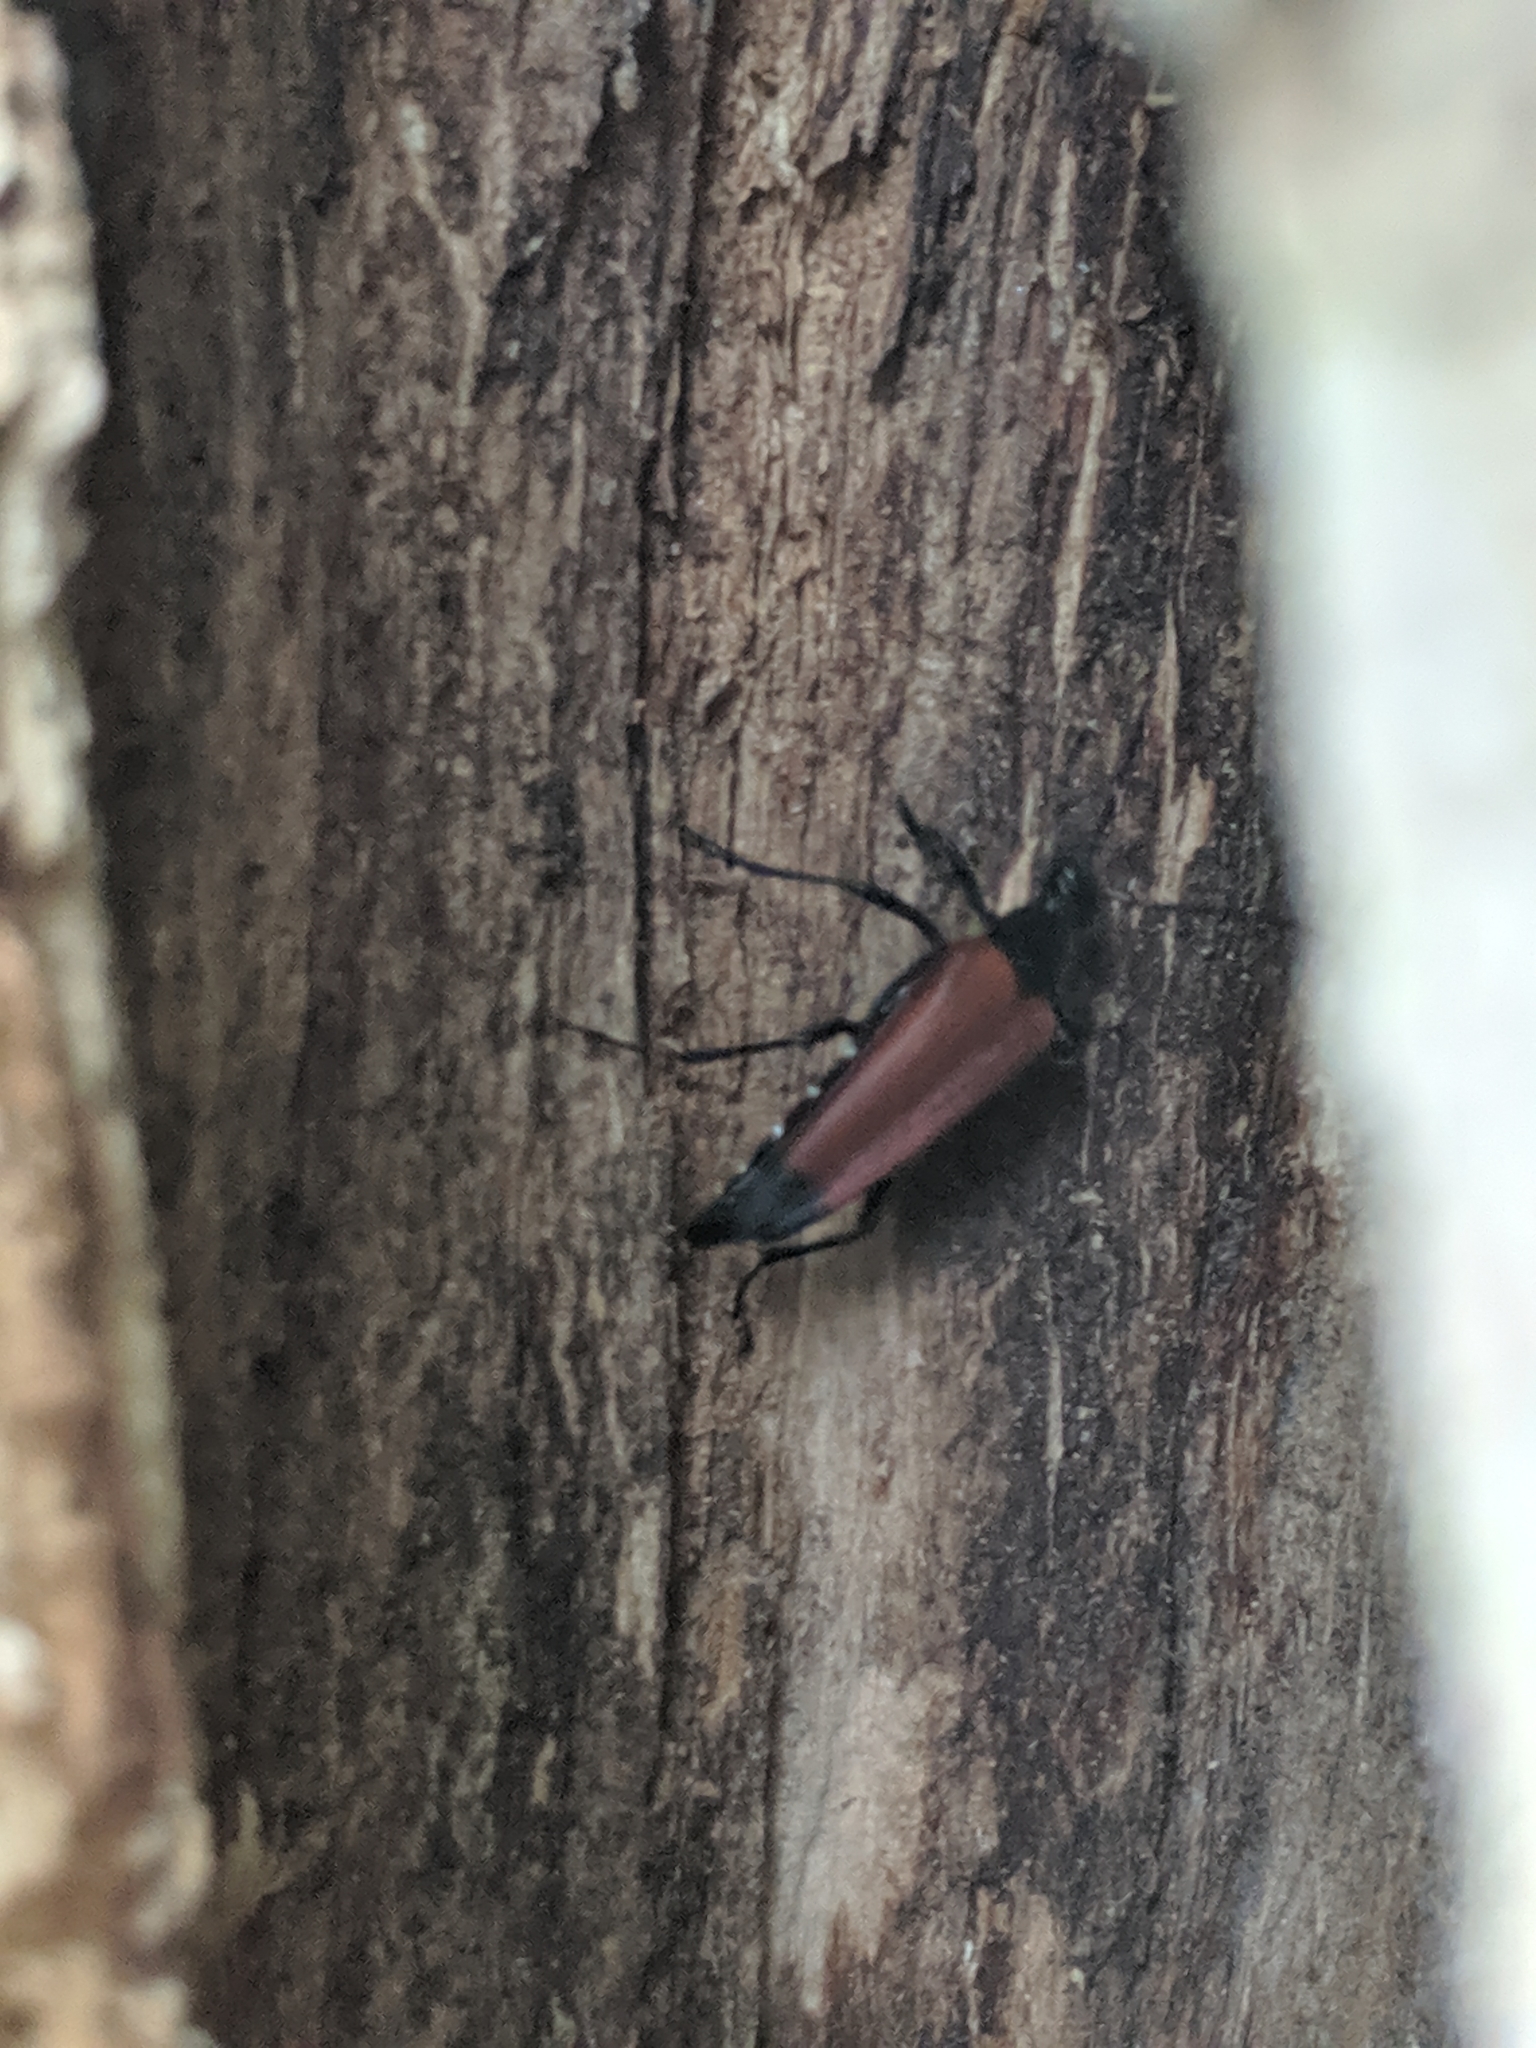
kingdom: Animalia
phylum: Arthropoda
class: Insecta
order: Coleoptera
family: Cerambycidae
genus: Stenelytrana
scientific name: Stenelytrana emarginata
